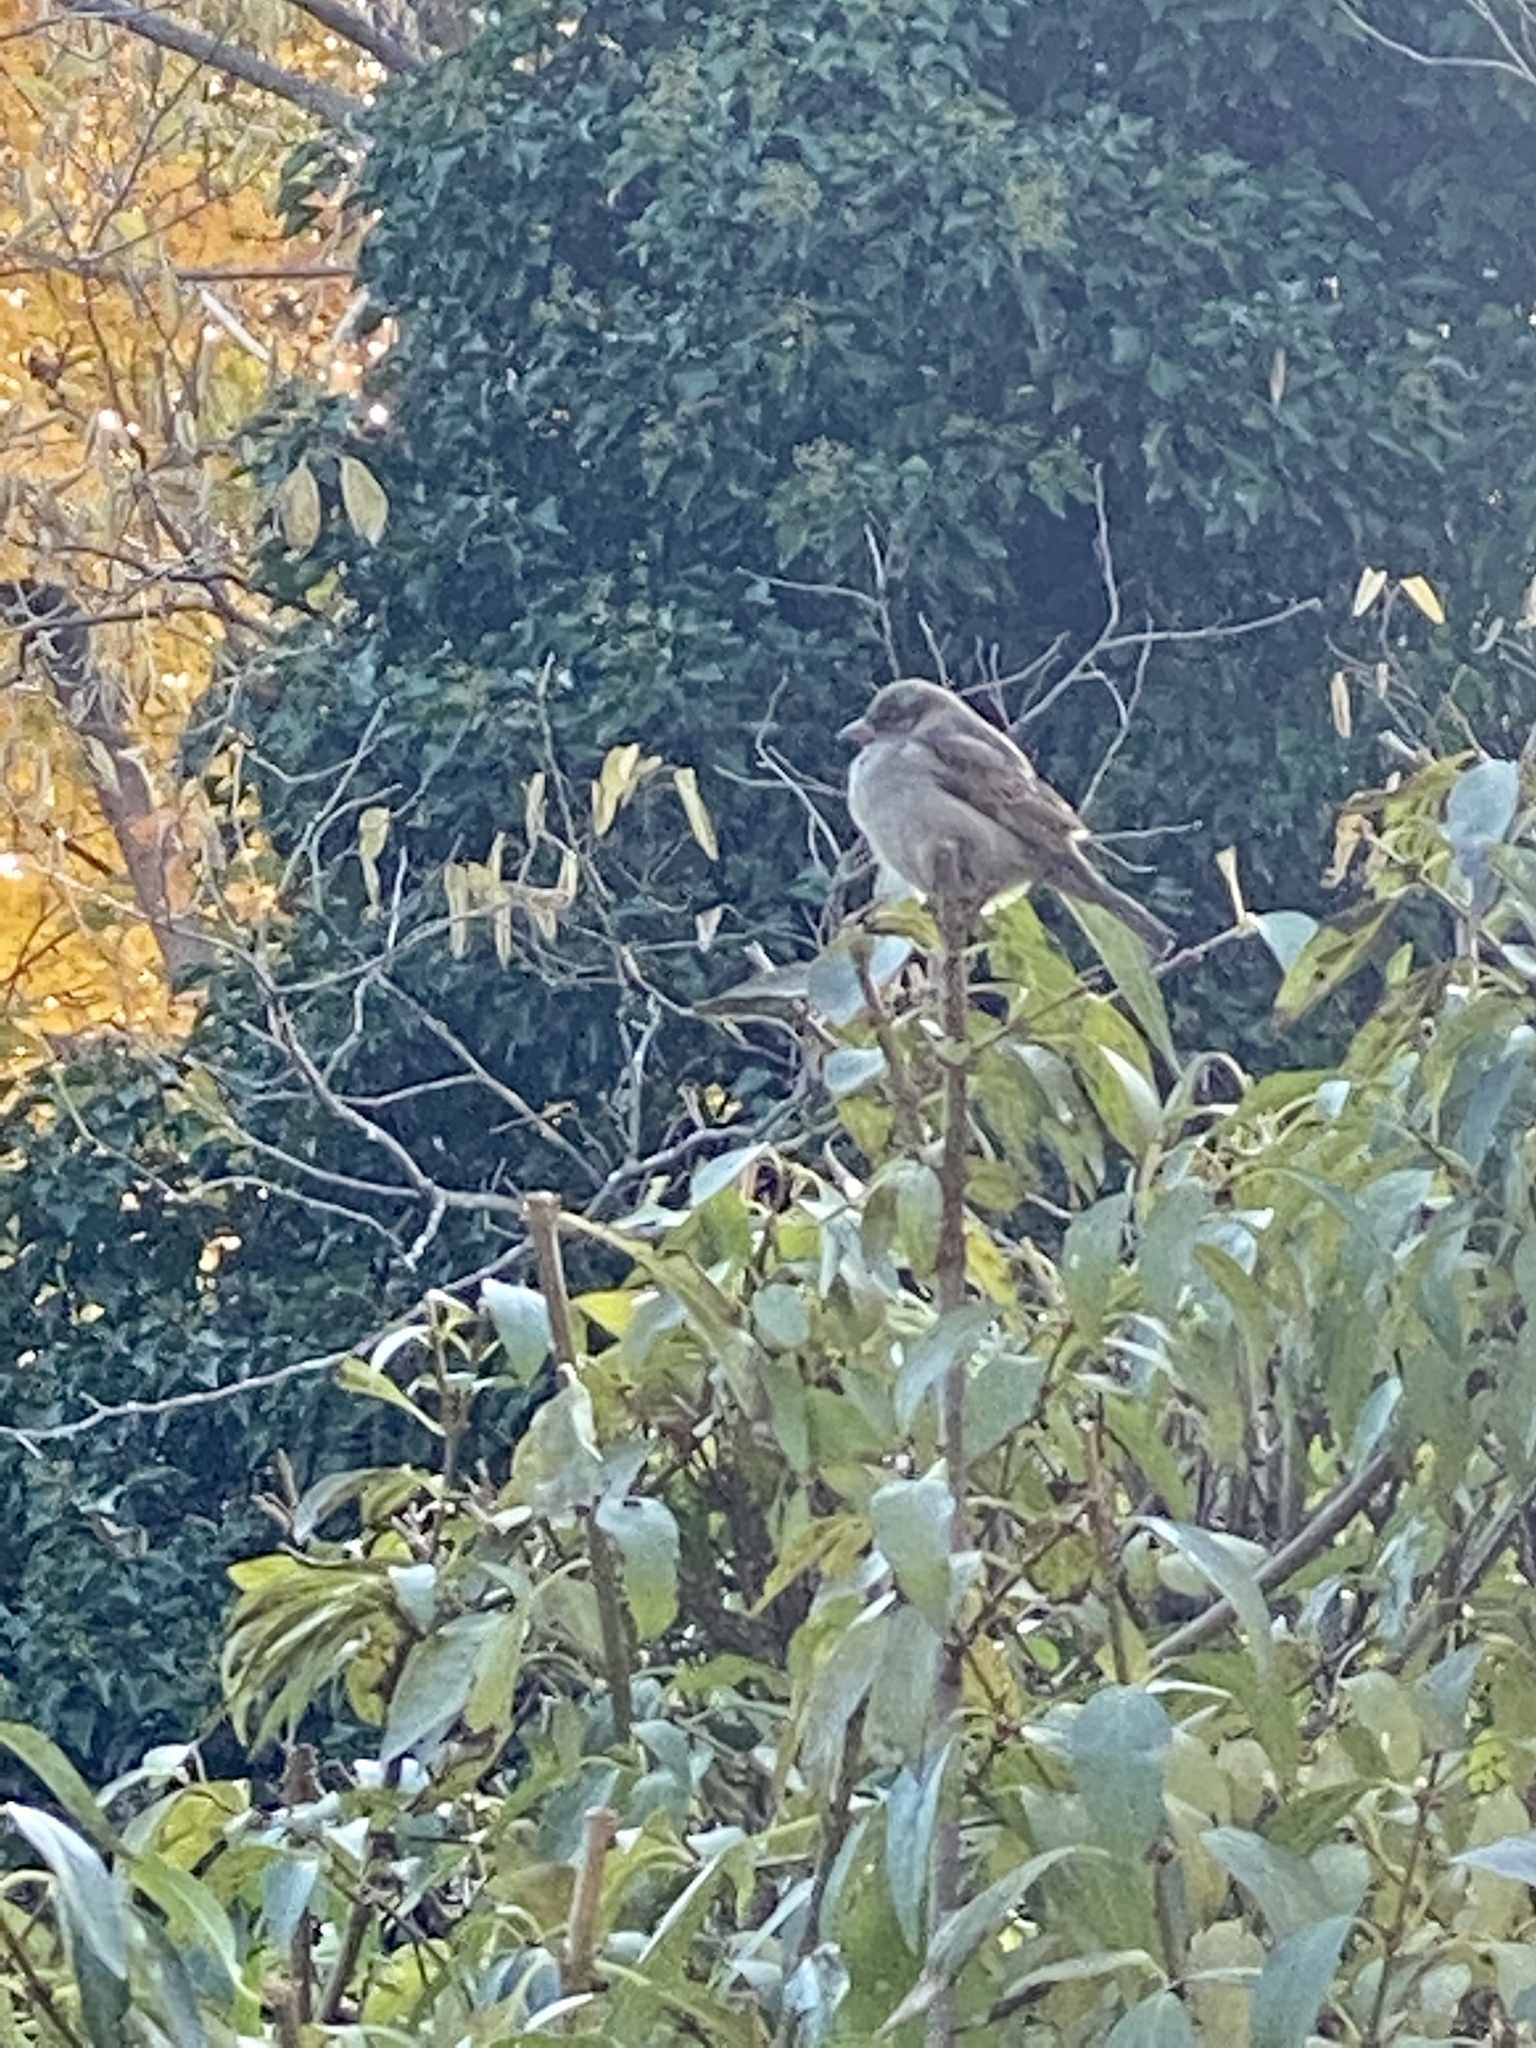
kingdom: Animalia
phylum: Chordata
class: Aves
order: Passeriformes
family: Passeridae
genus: Passer
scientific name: Passer domesticus
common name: House sparrow
